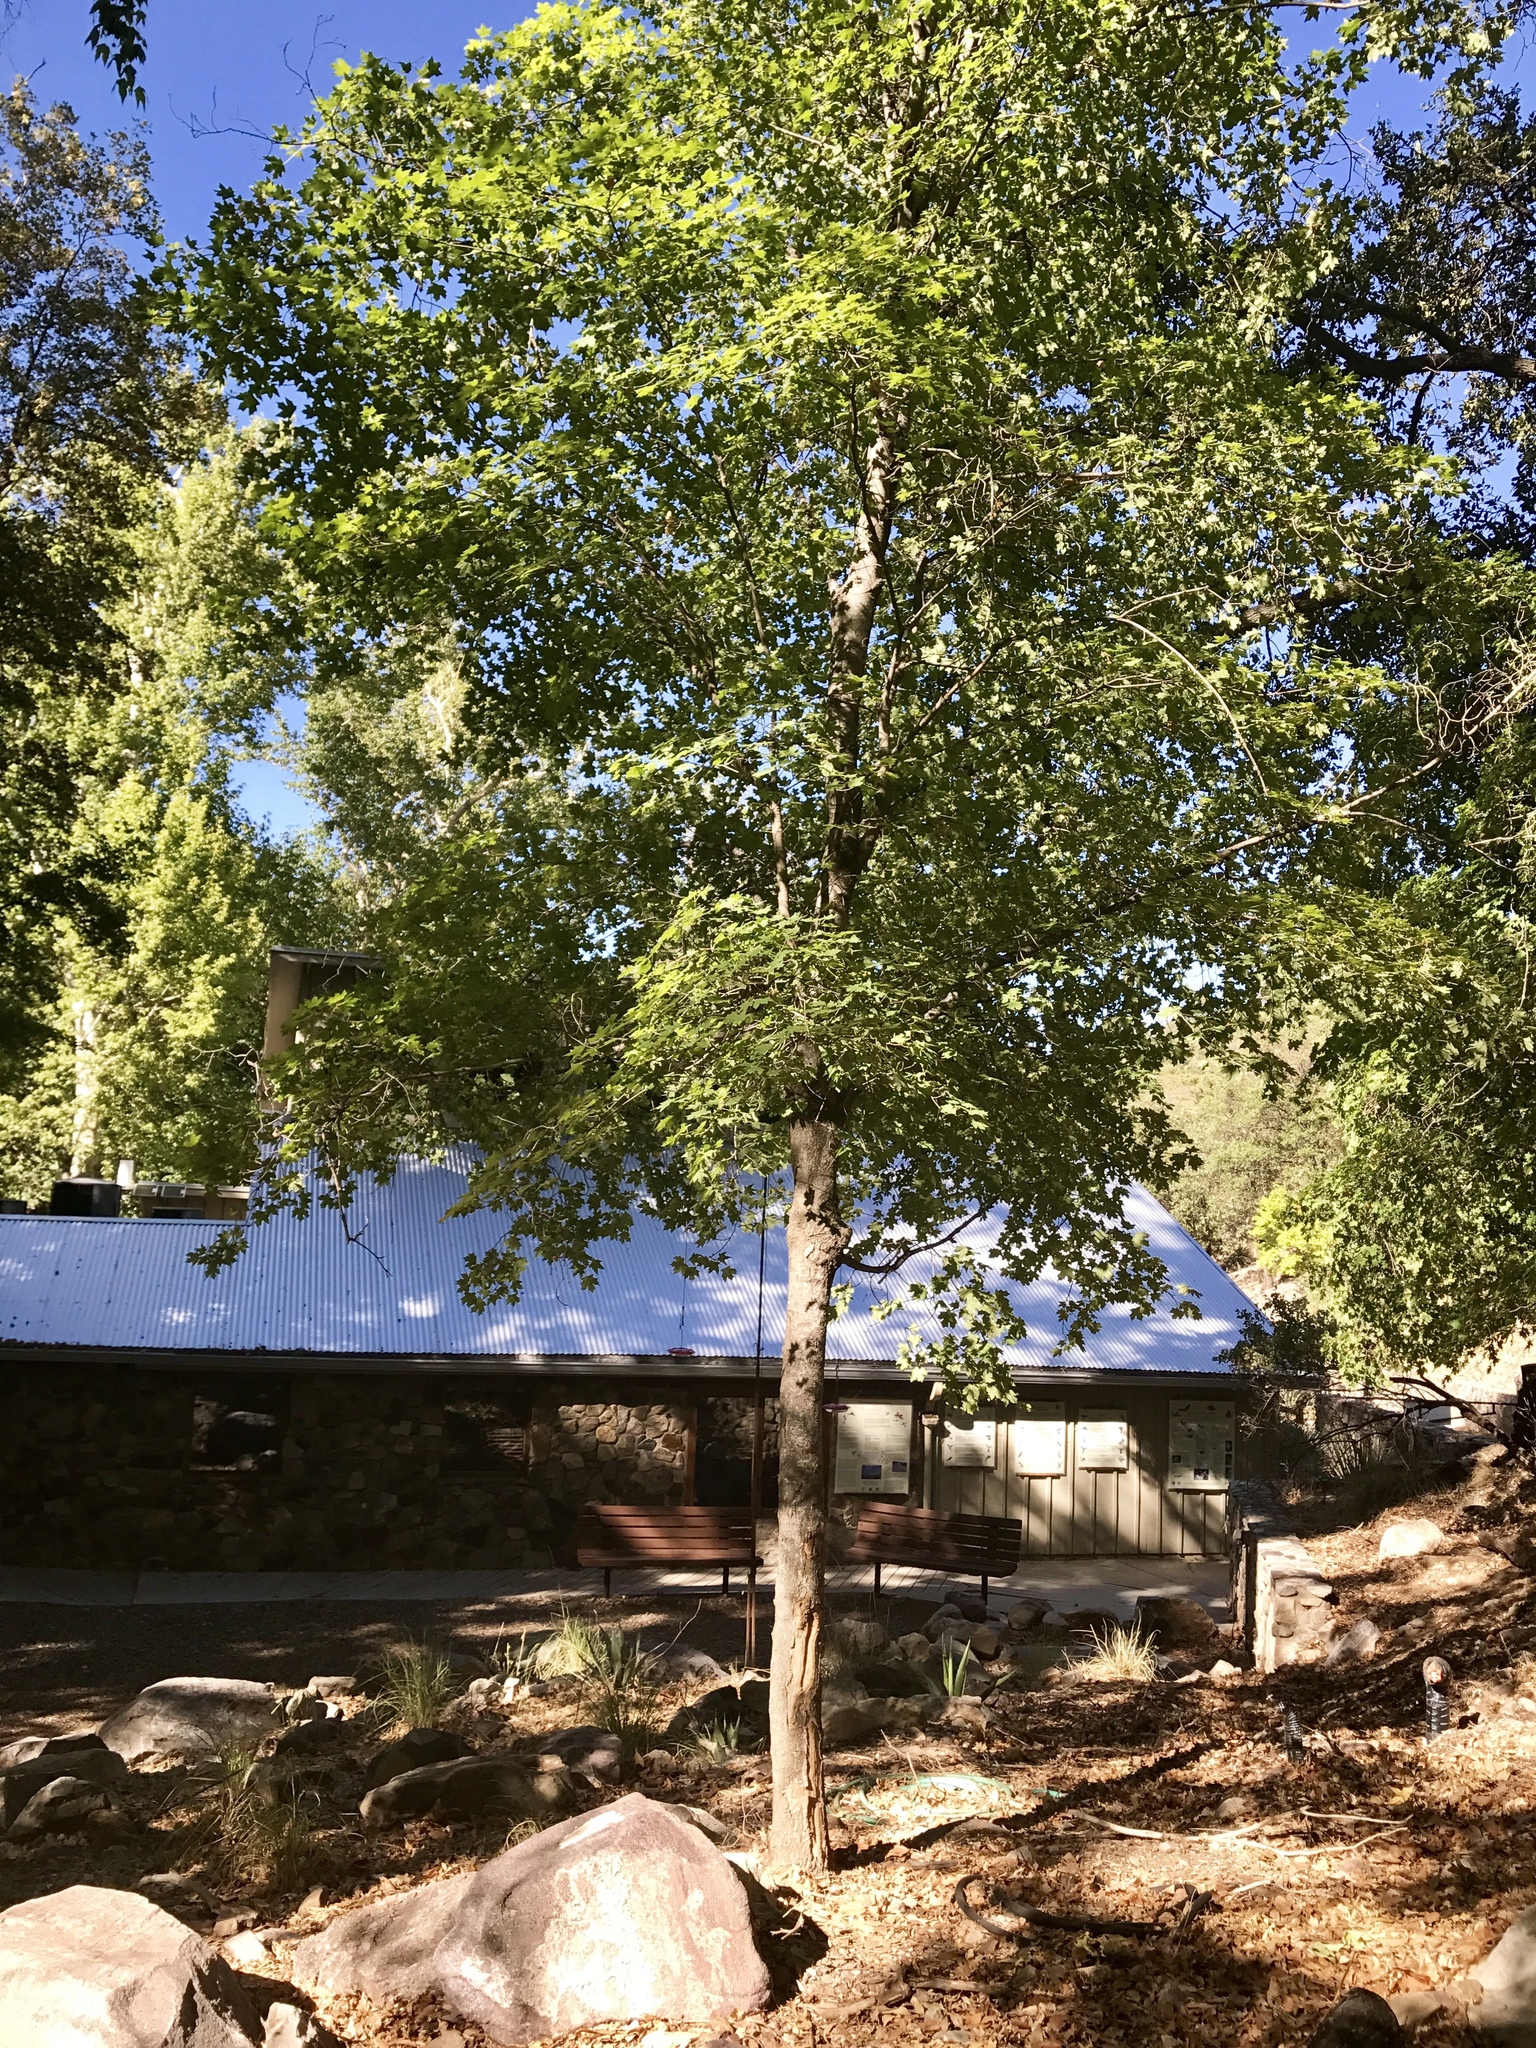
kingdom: Plantae
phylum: Tracheophyta
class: Magnoliopsida
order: Sapindales
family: Sapindaceae
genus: Acer
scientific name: Acer grandidentatum
